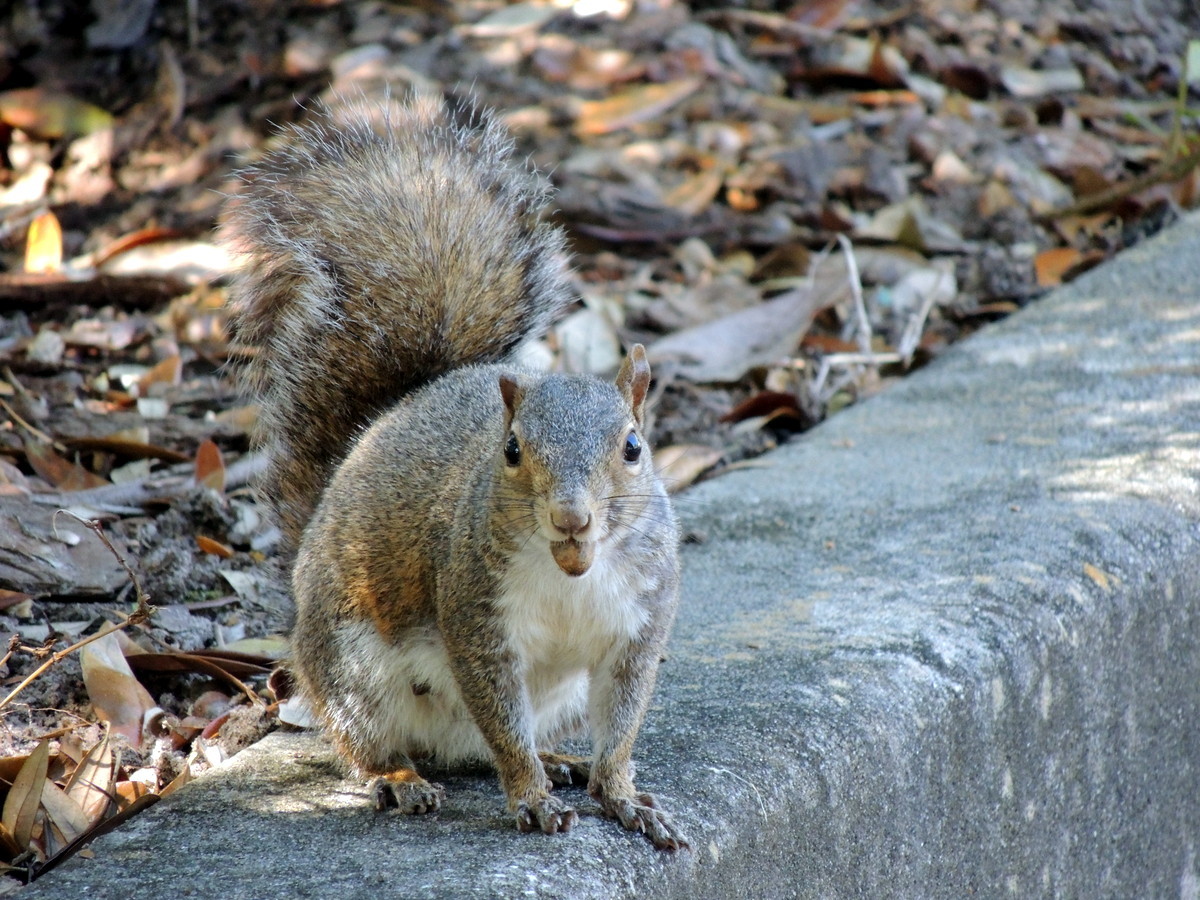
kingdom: Animalia
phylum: Chordata
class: Mammalia
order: Rodentia
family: Sciuridae
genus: Sciurus
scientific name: Sciurus carolinensis
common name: Eastern gray squirrel
